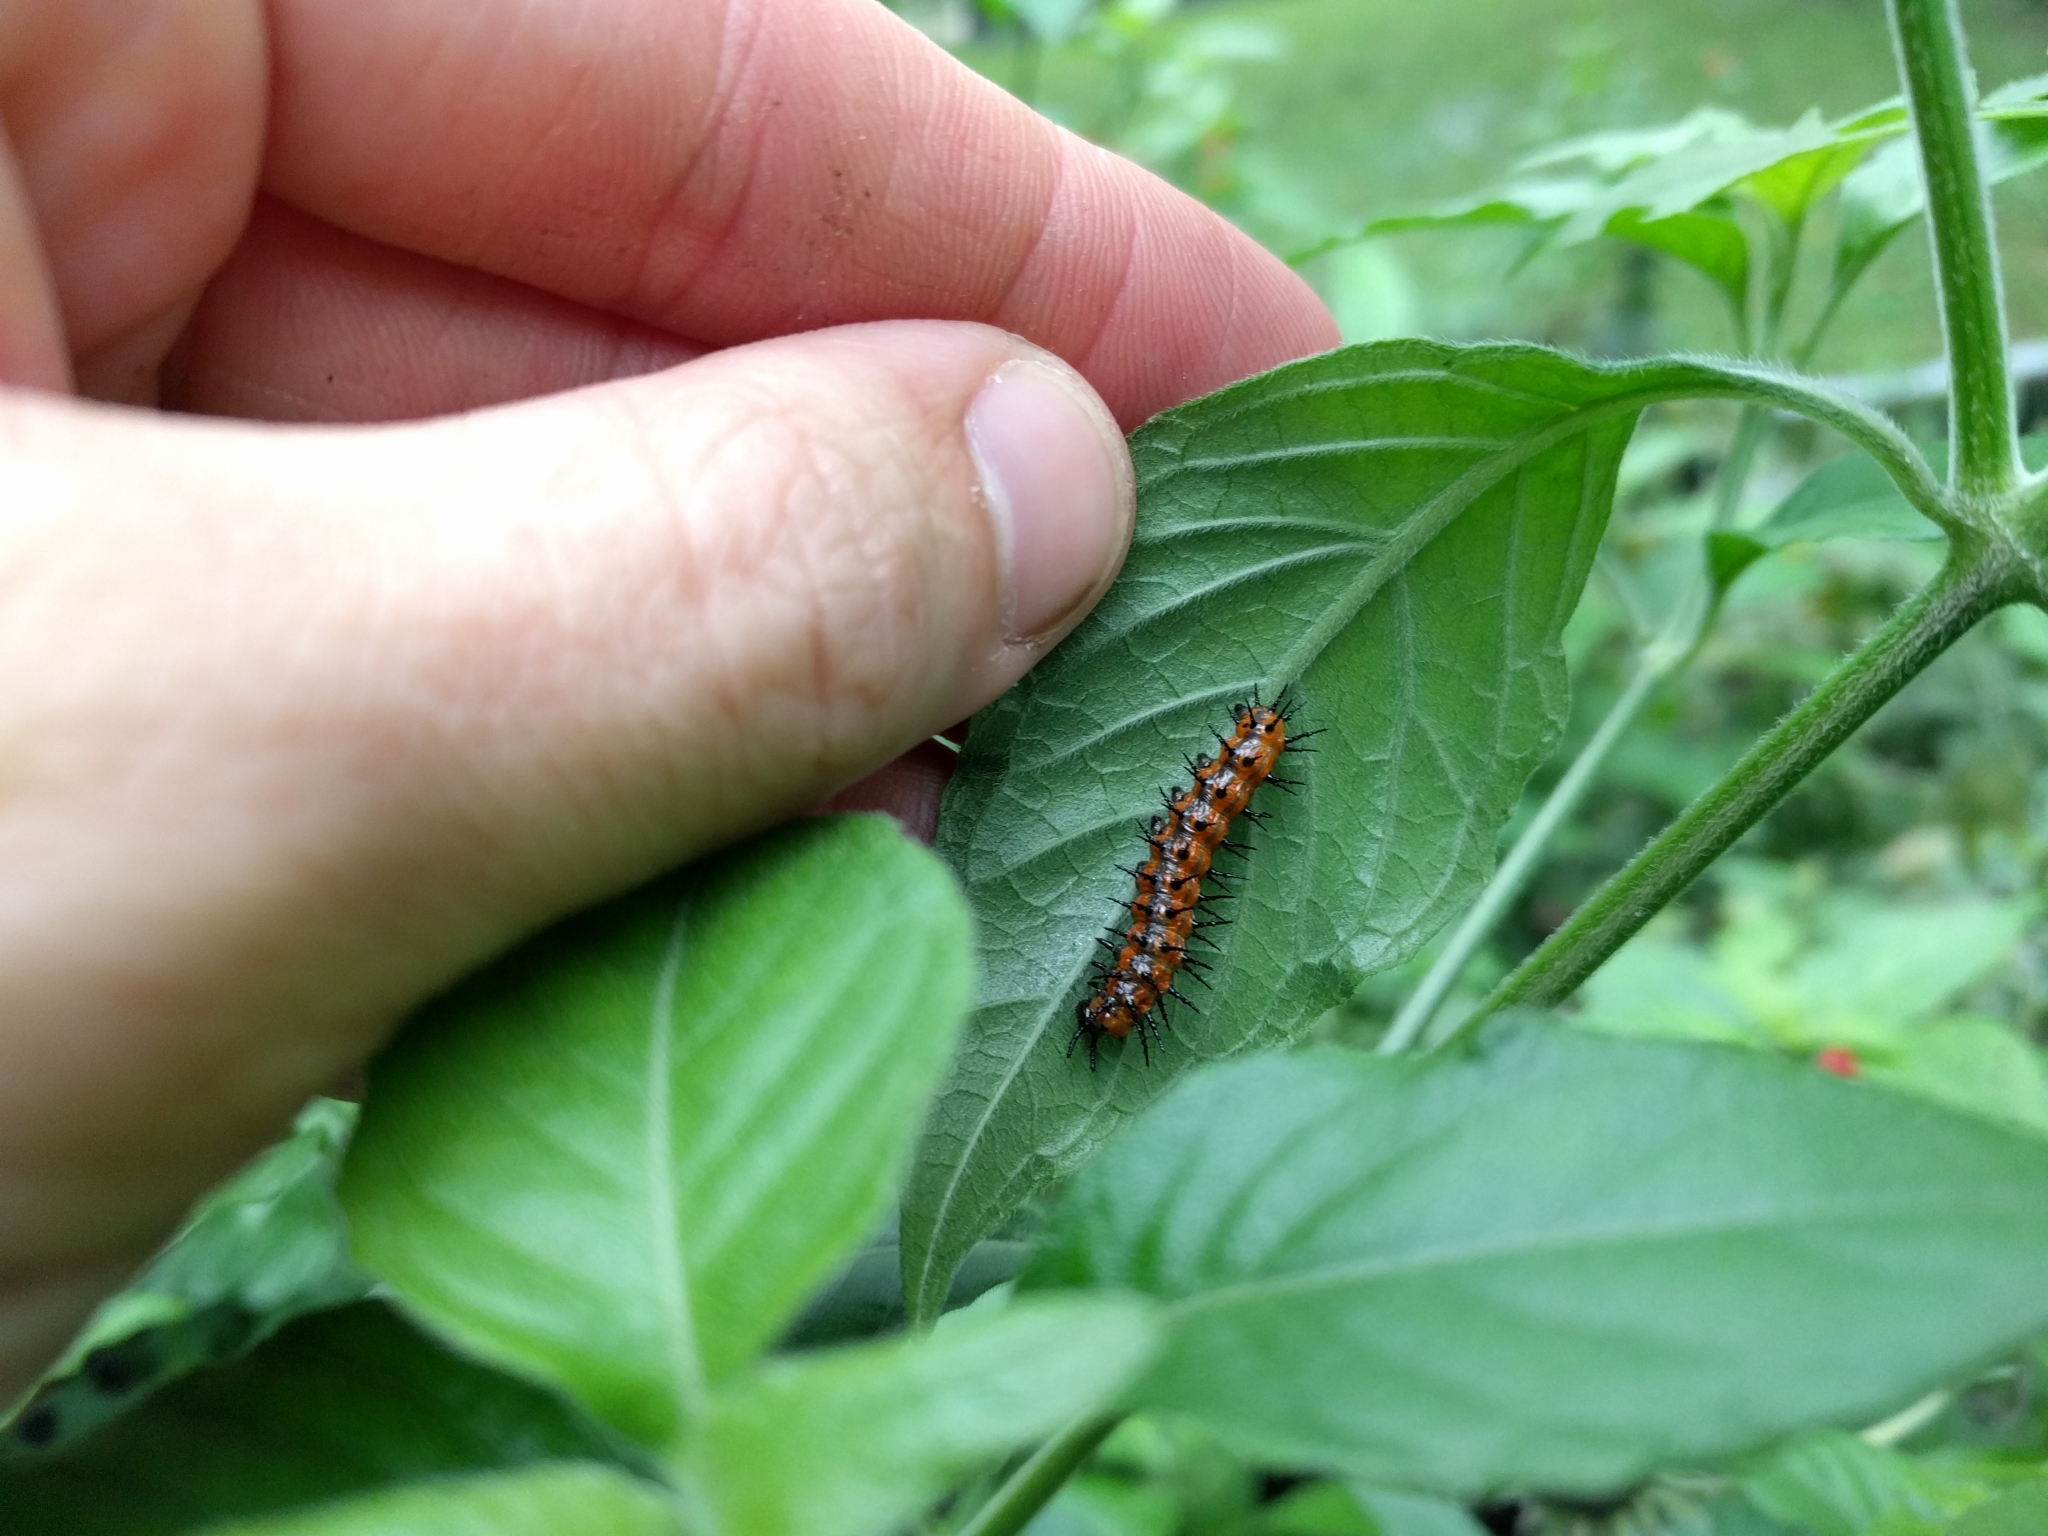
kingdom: Animalia
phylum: Arthropoda
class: Insecta
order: Lepidoptera
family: Nymphalidae
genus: Dione
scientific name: Dione vanillae
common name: Gulf fritillary
